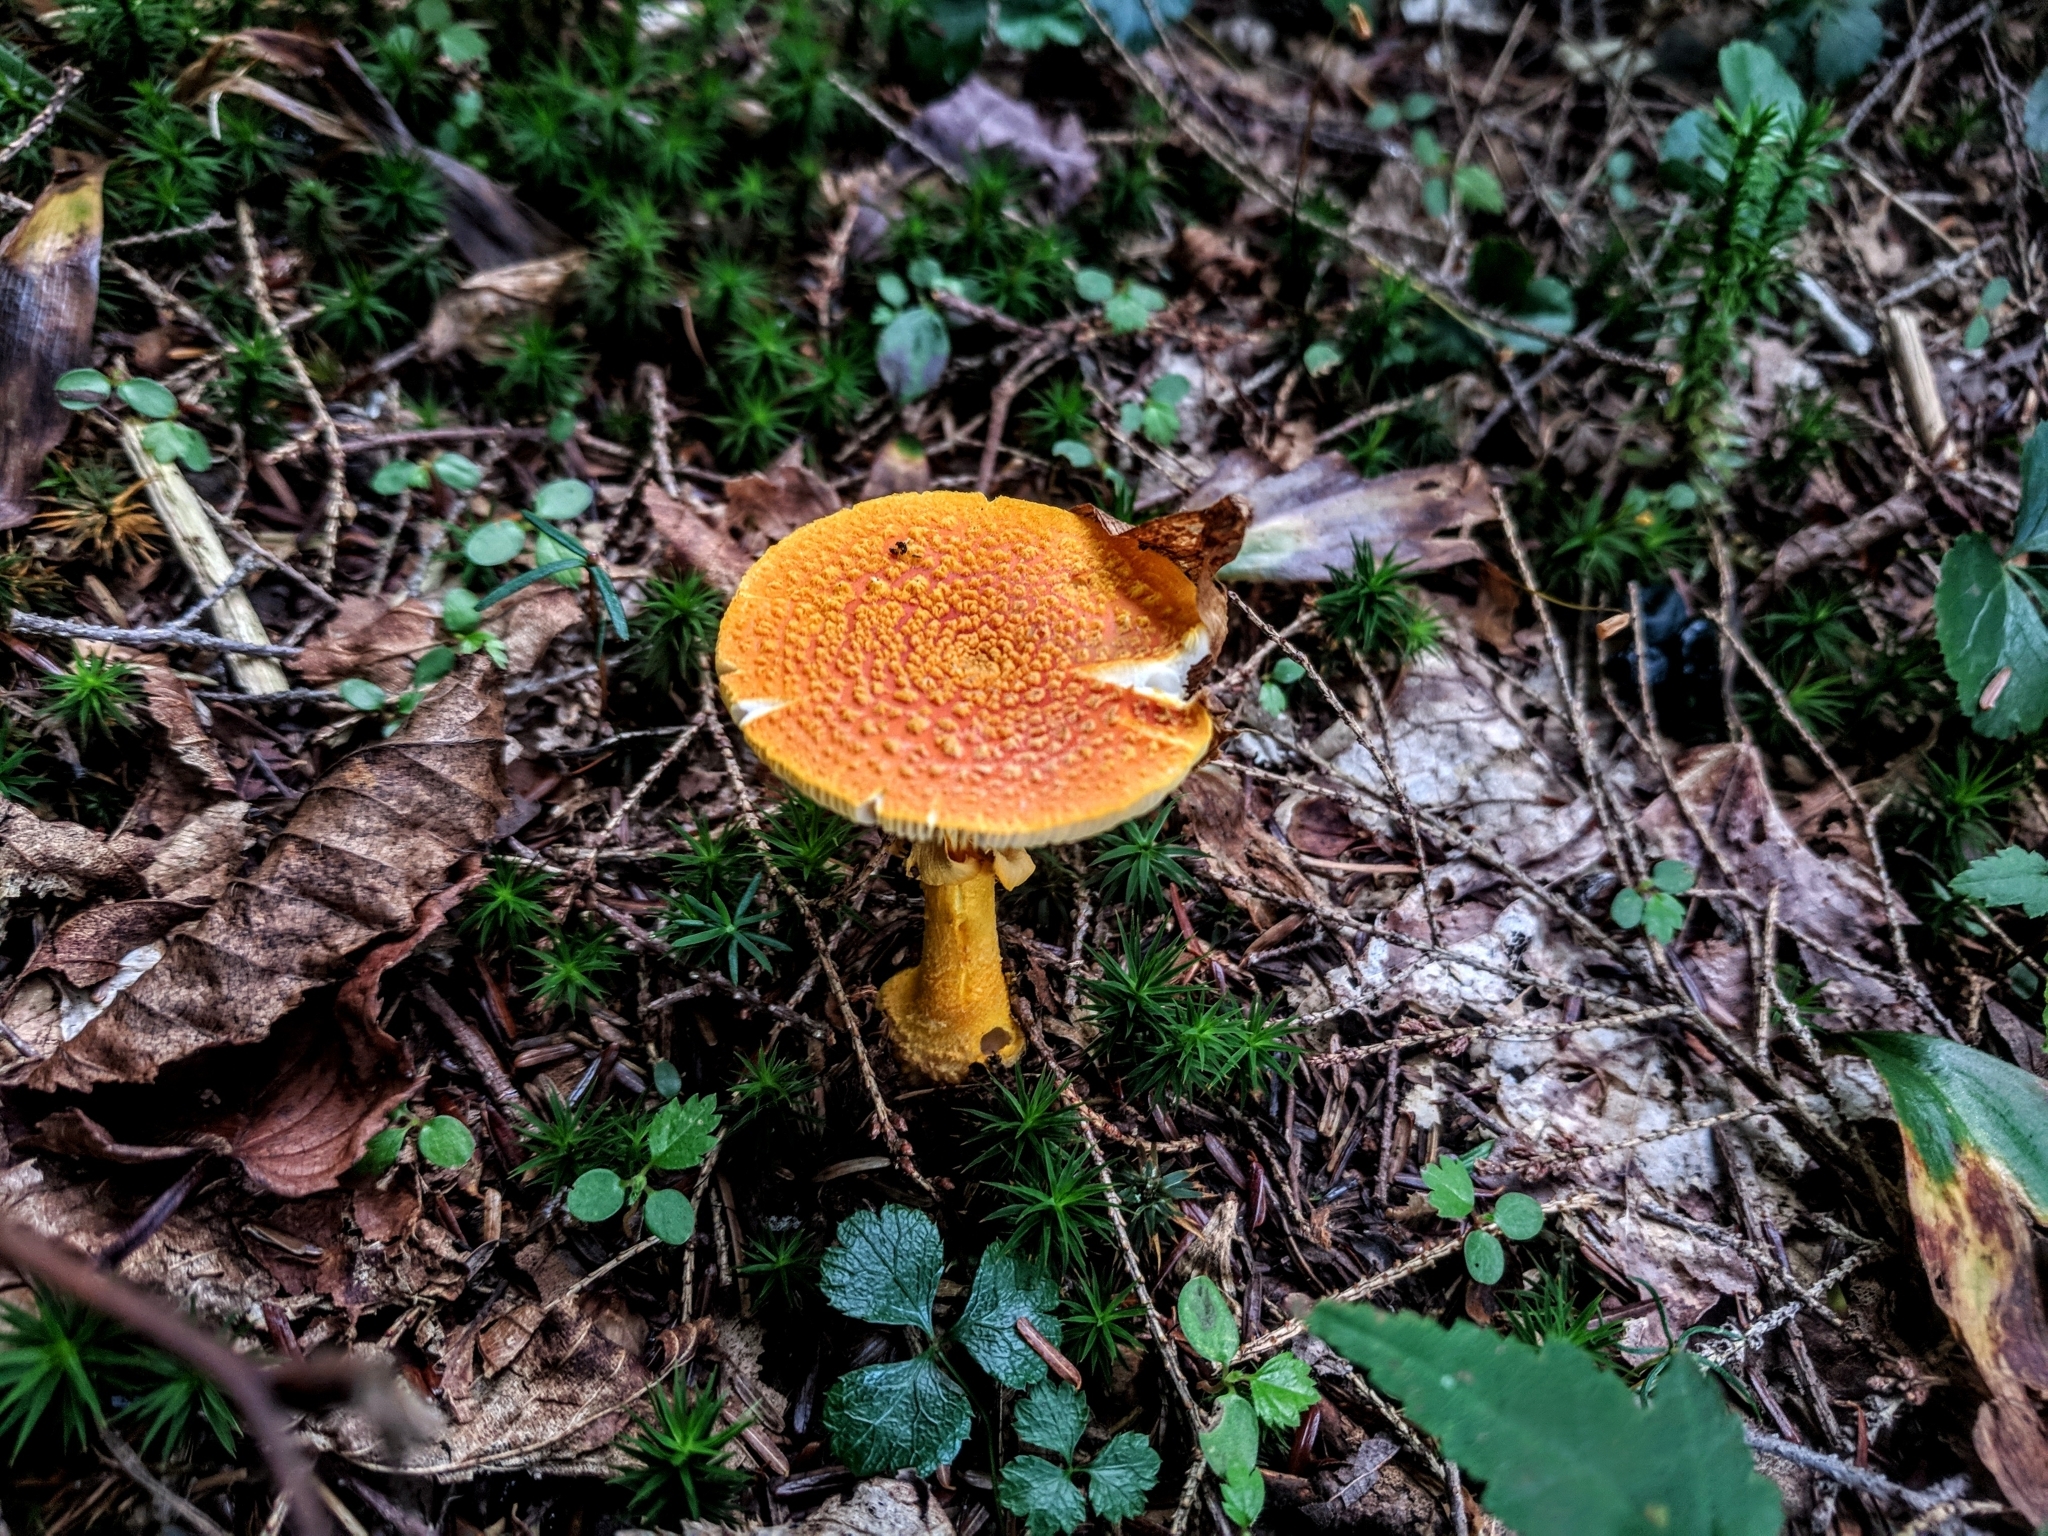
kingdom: Fungi
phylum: Basidiomycota
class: Agaricomycetes
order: Agaricales
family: Amanitaceae
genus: Amanita
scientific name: Amanita flavoconia
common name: Yellow patches
